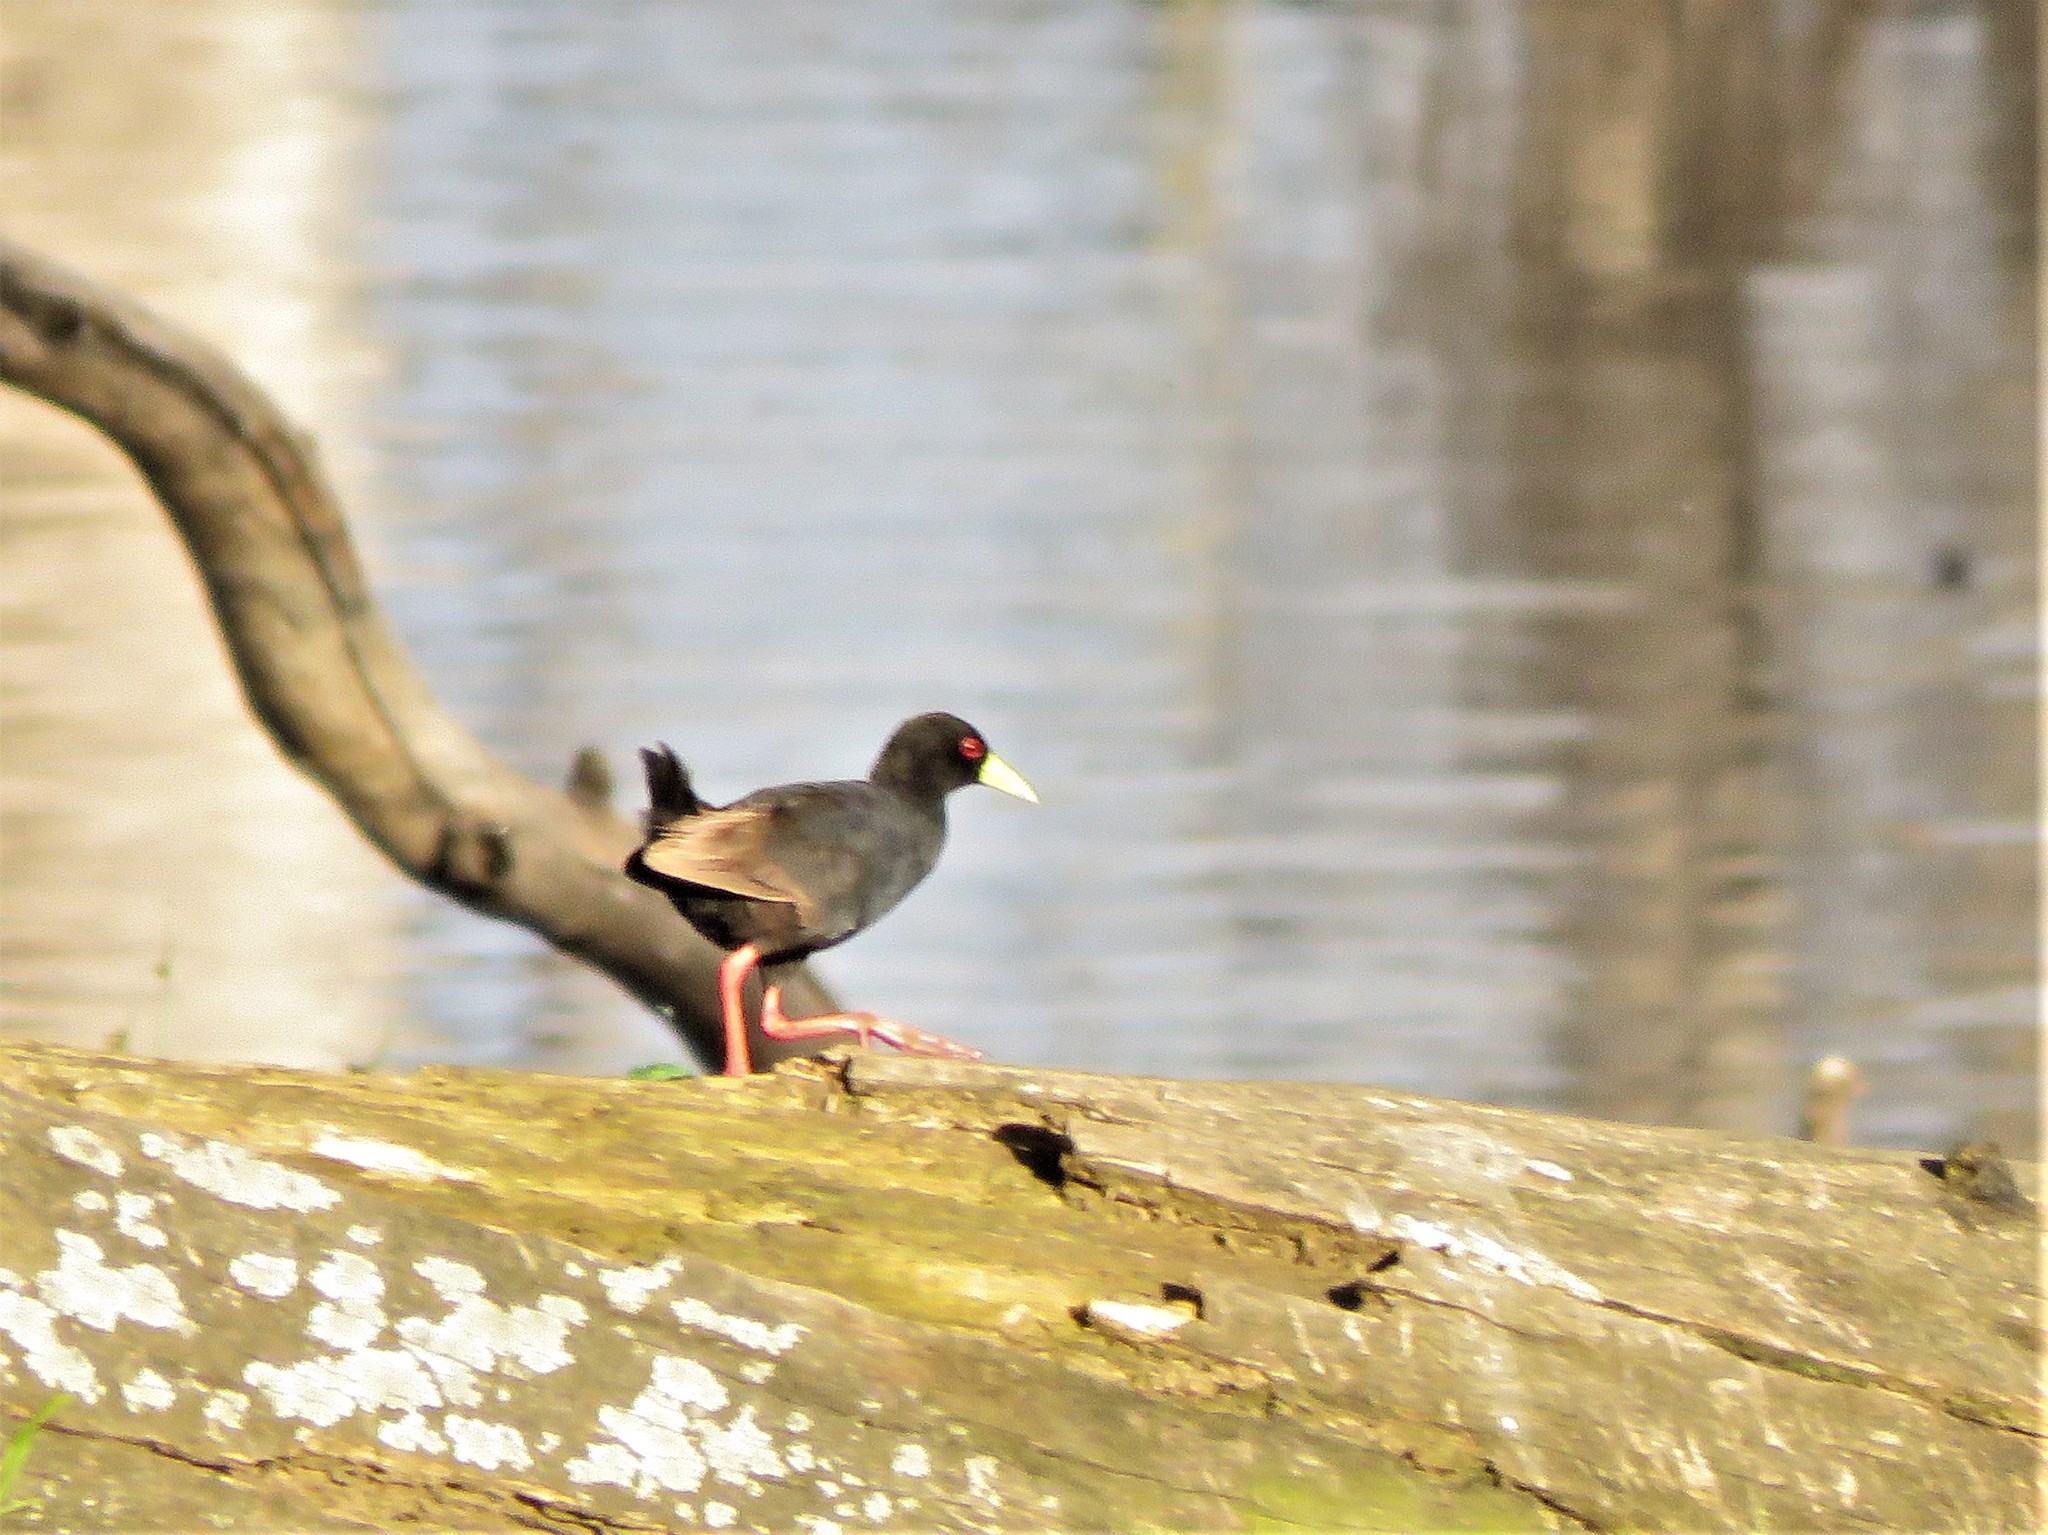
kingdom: Animalia
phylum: Chordata
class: Aves
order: Gruiformes
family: Rallidae
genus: Amaurornis
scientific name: Amaurornis flavirostra
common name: Black crake
